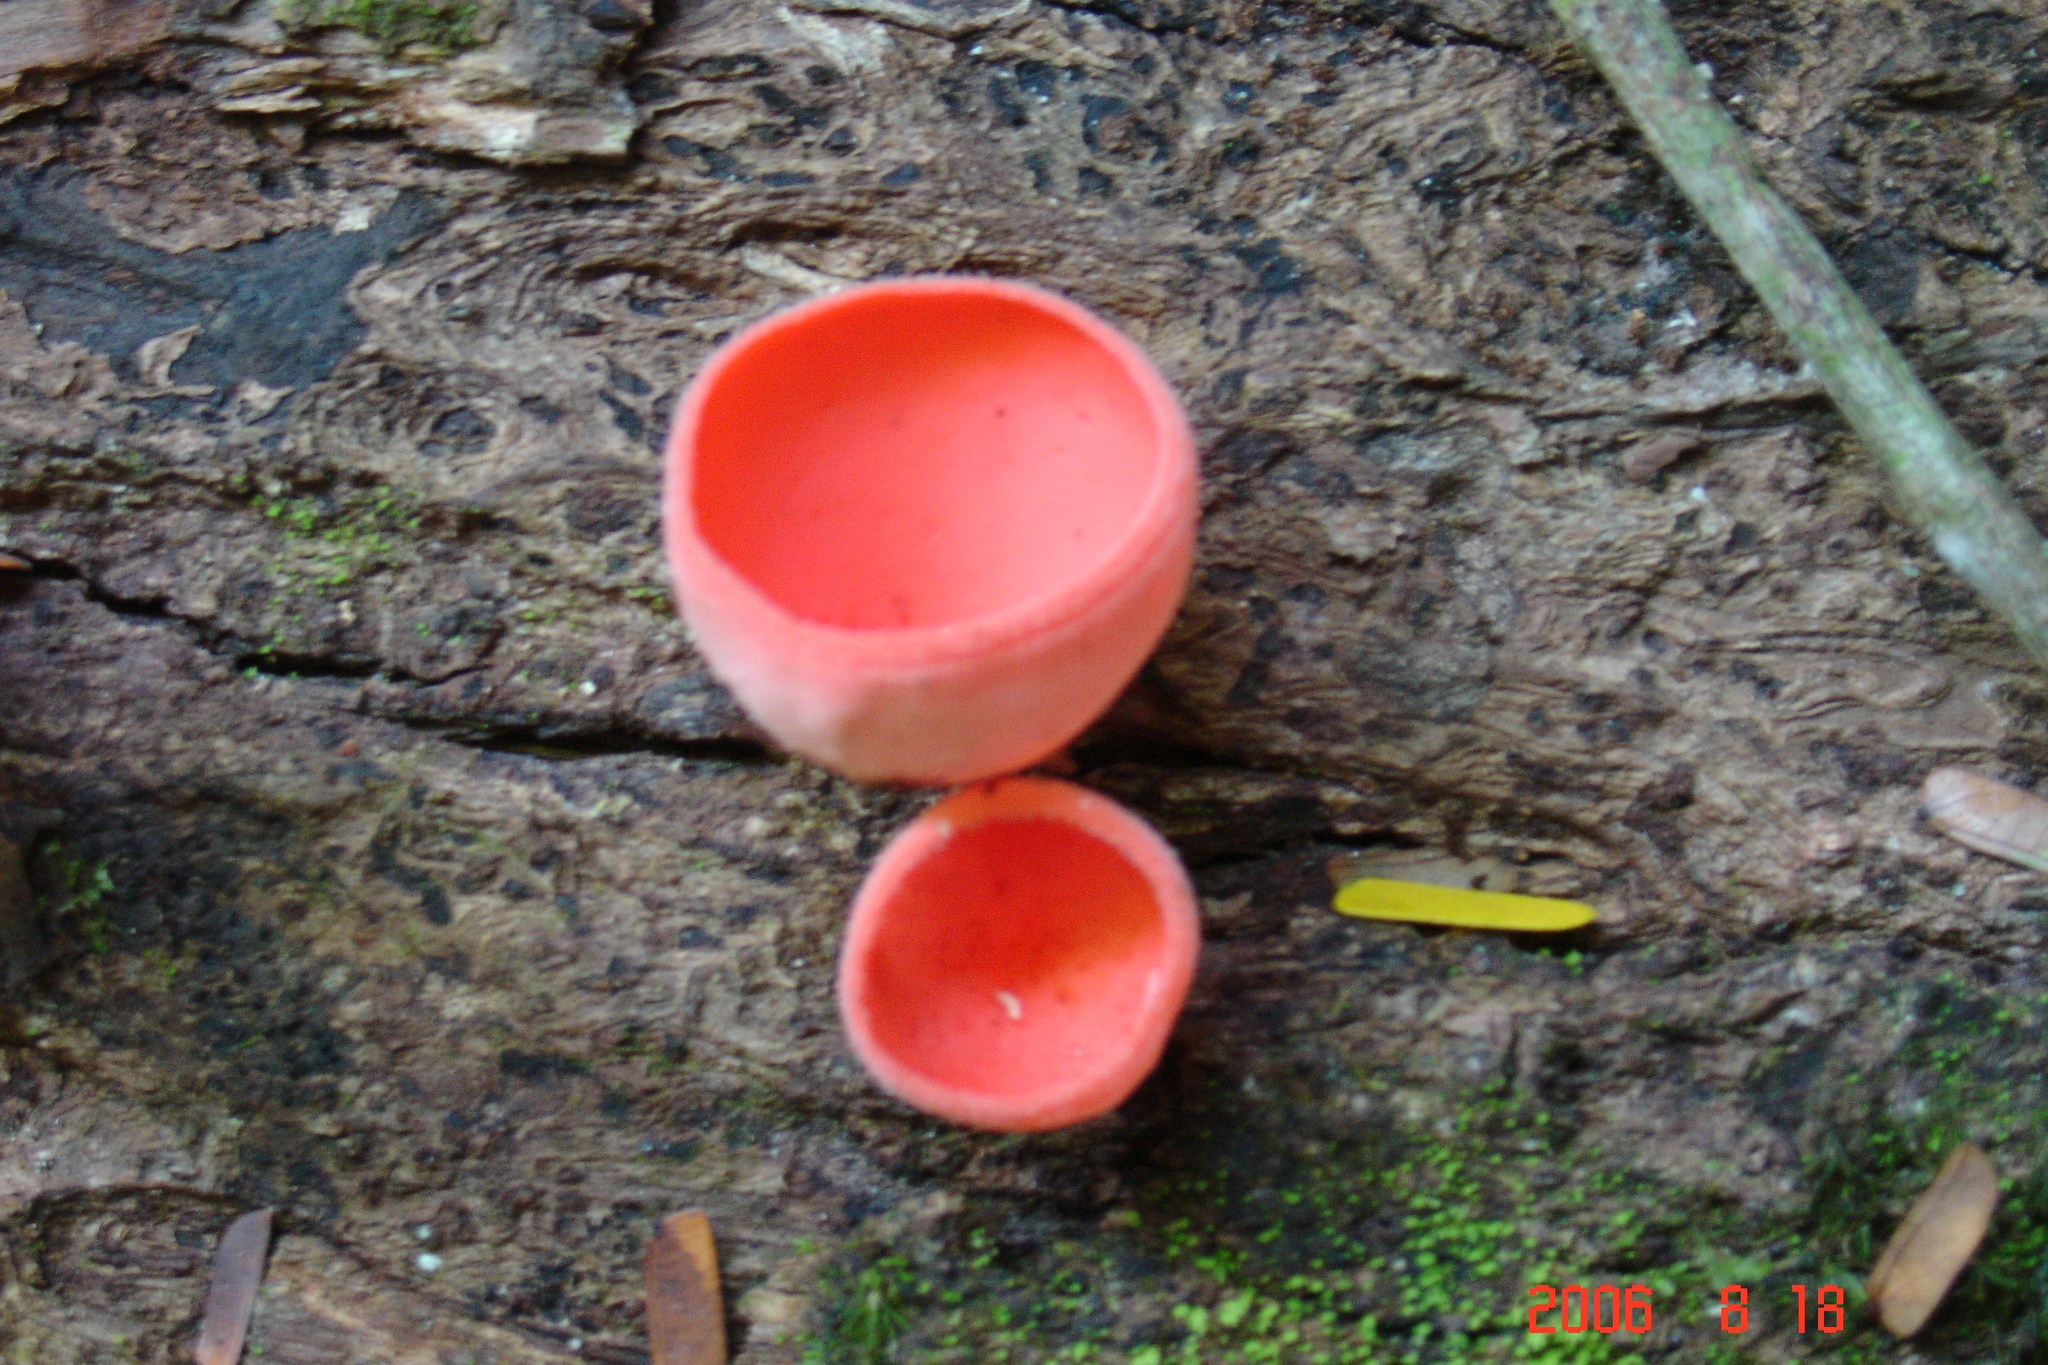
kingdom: Fungi
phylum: Ascomycota
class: Pezizomycetes
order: Pezizales
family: Sarcoscyphaceae
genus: Cookeina
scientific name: Cookeina speciosa
